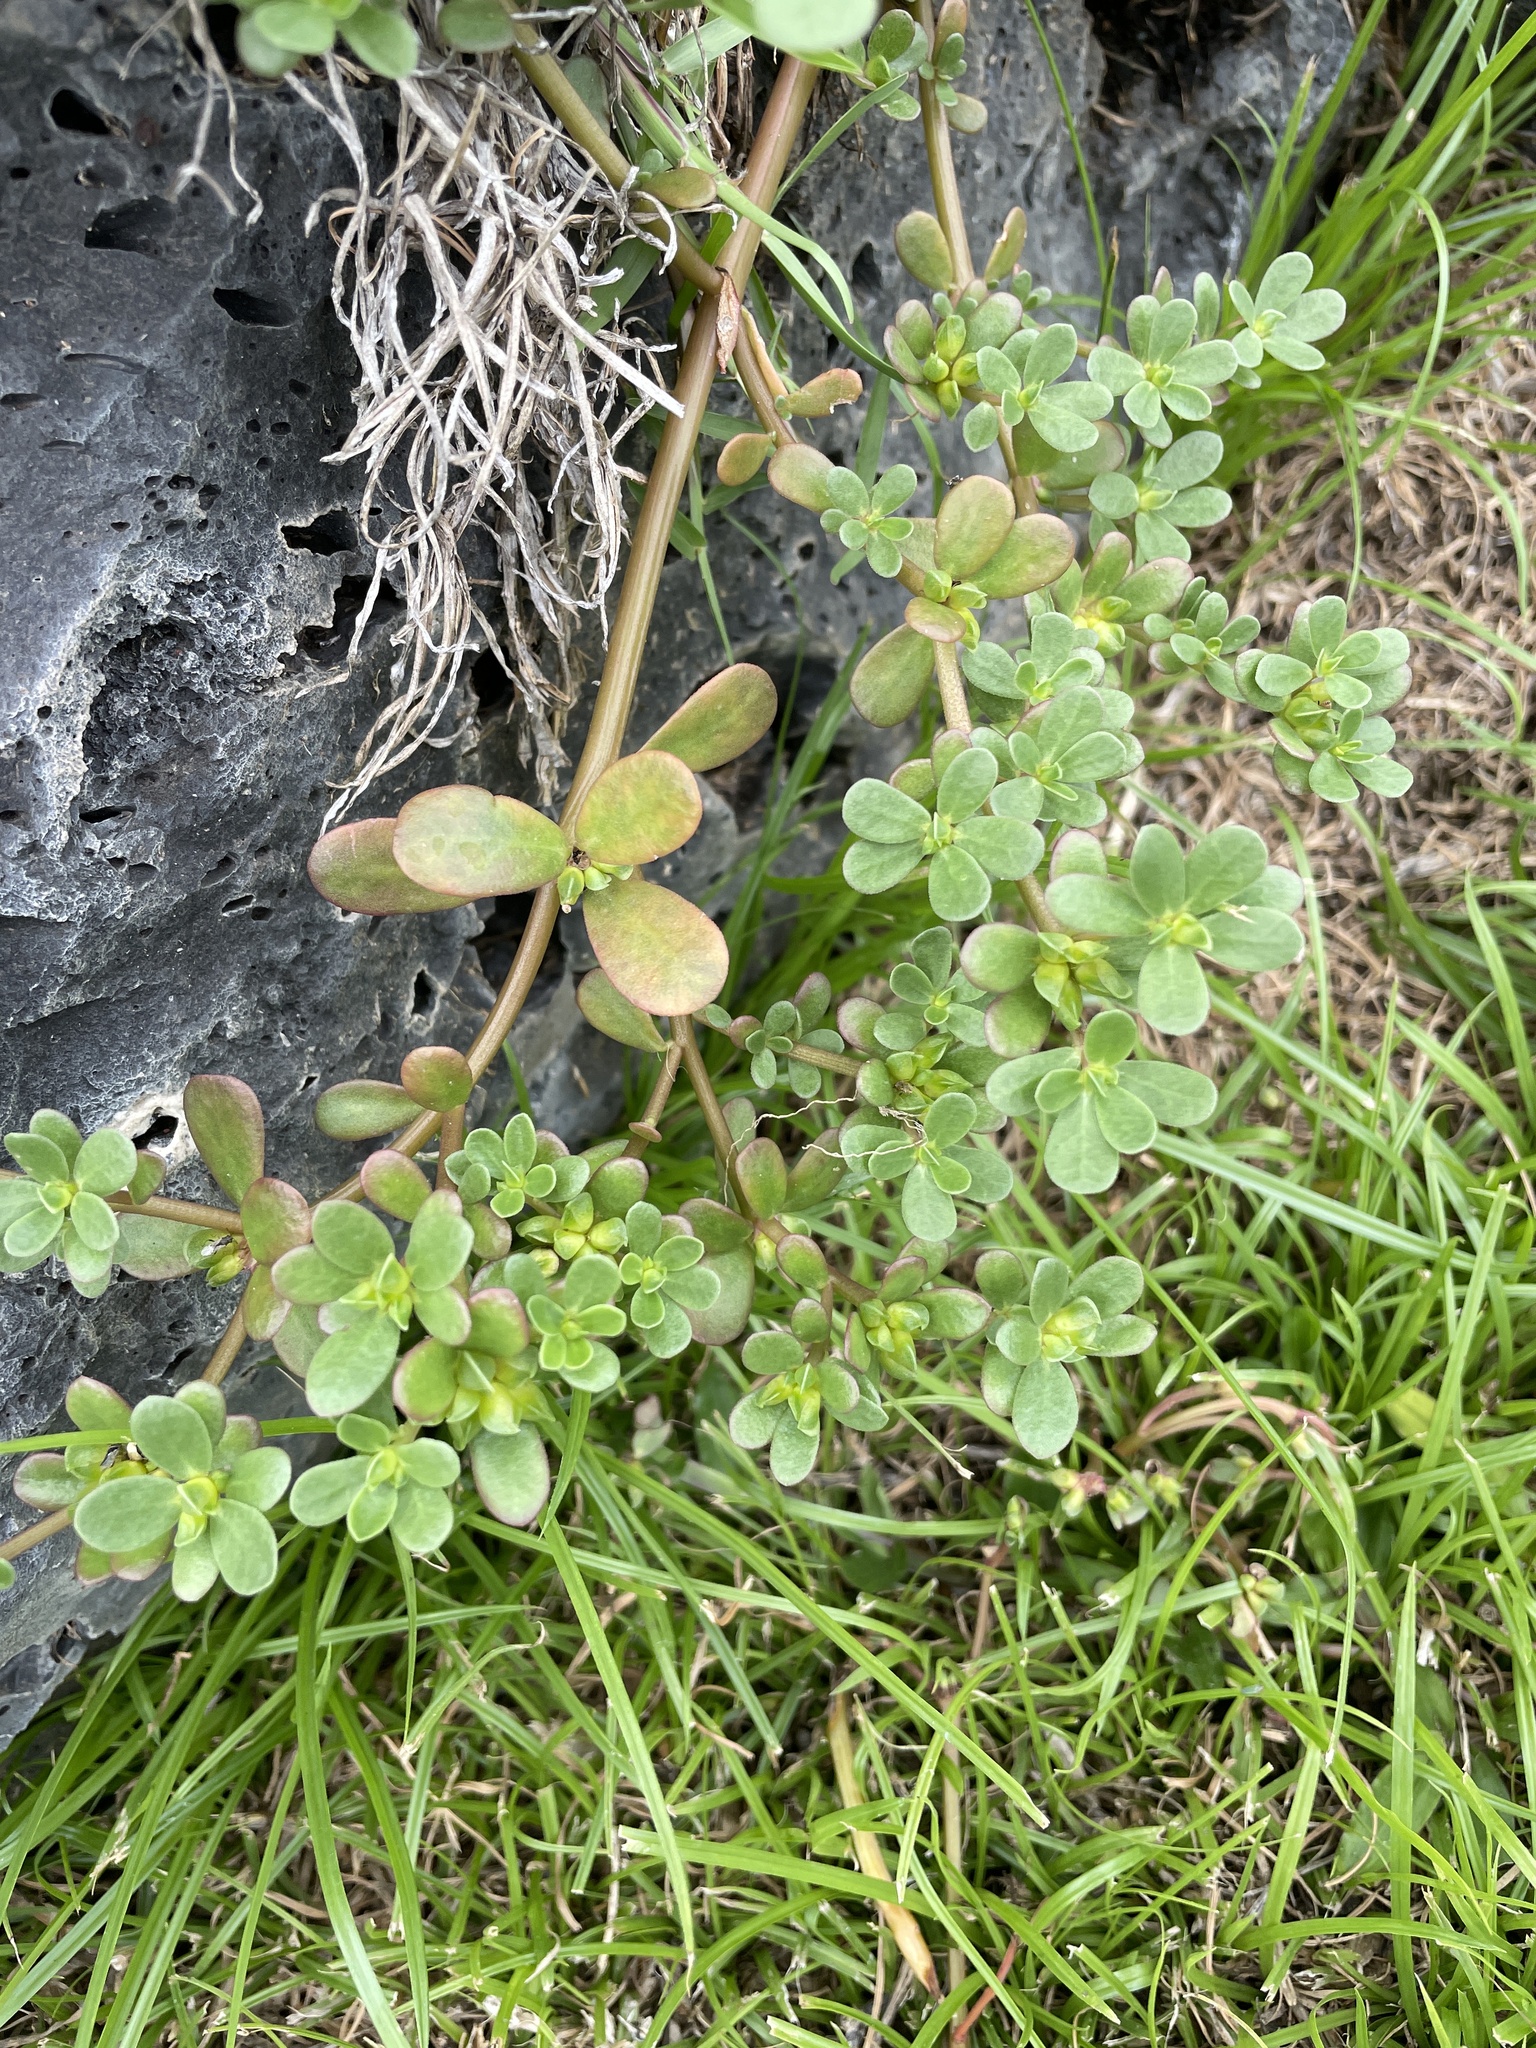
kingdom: Plantae
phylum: Tracheophyta
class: Magnoliopsida
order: Caryophyllales
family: Portulacaceae
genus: Portulaca
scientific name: Portulaca oleracea
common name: Common purslane
